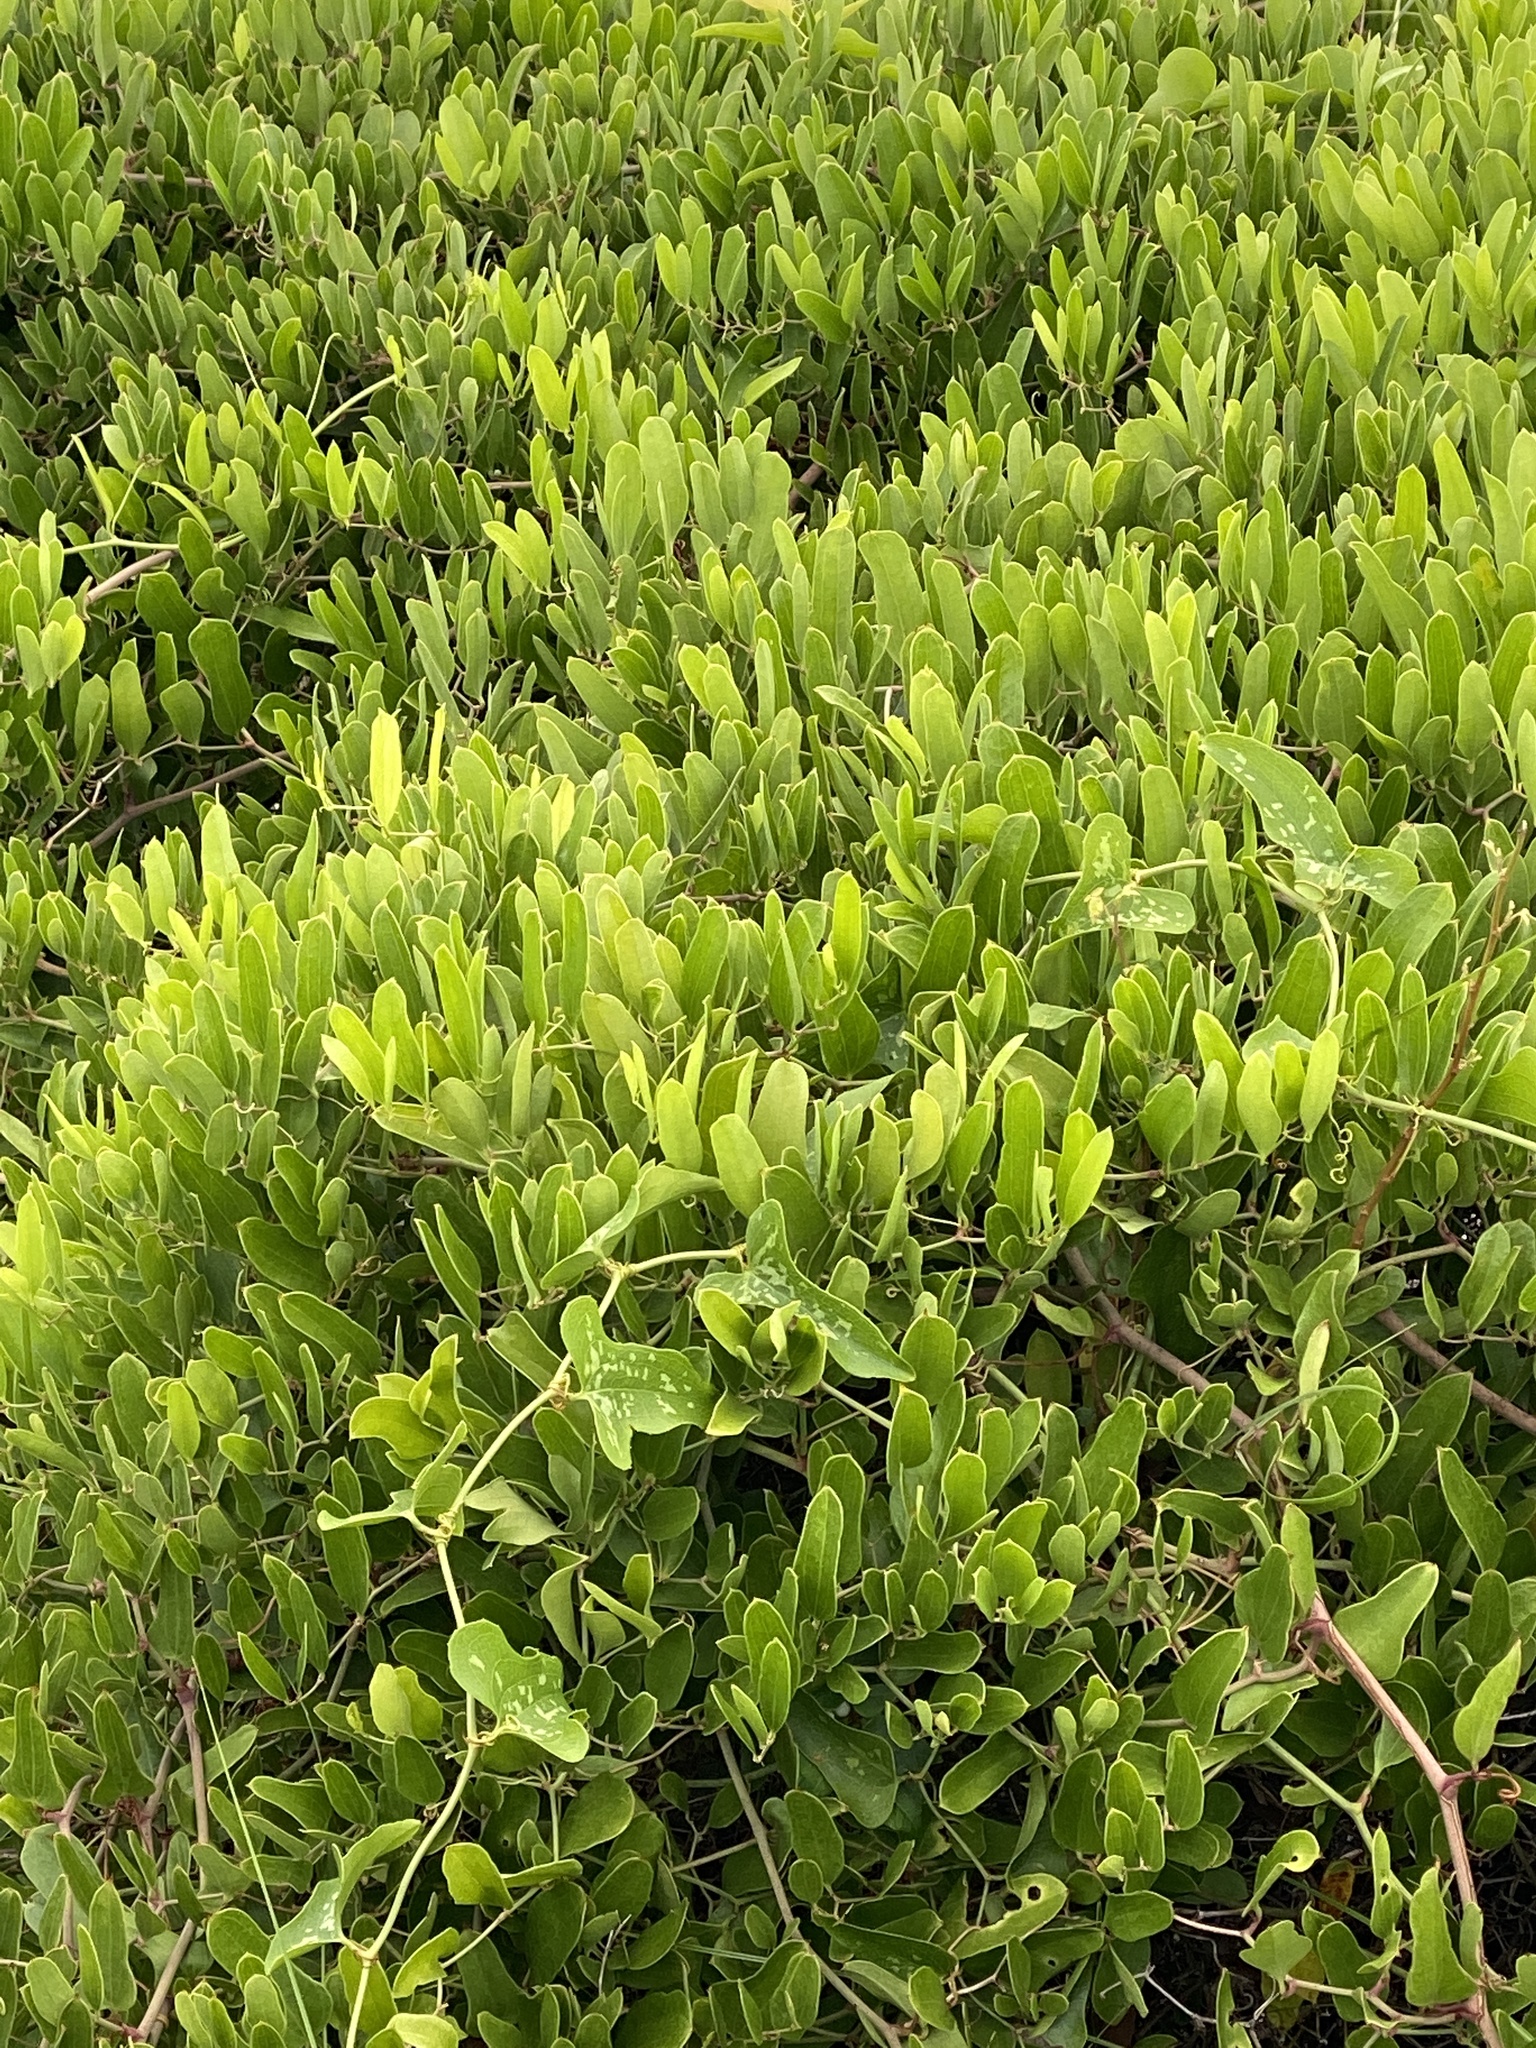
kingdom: Plantae
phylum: Tracheophyta
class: Liliopsida
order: Liliales
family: Smilacaceae
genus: Smilax
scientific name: Smilax auriculata
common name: Wild bamboo
